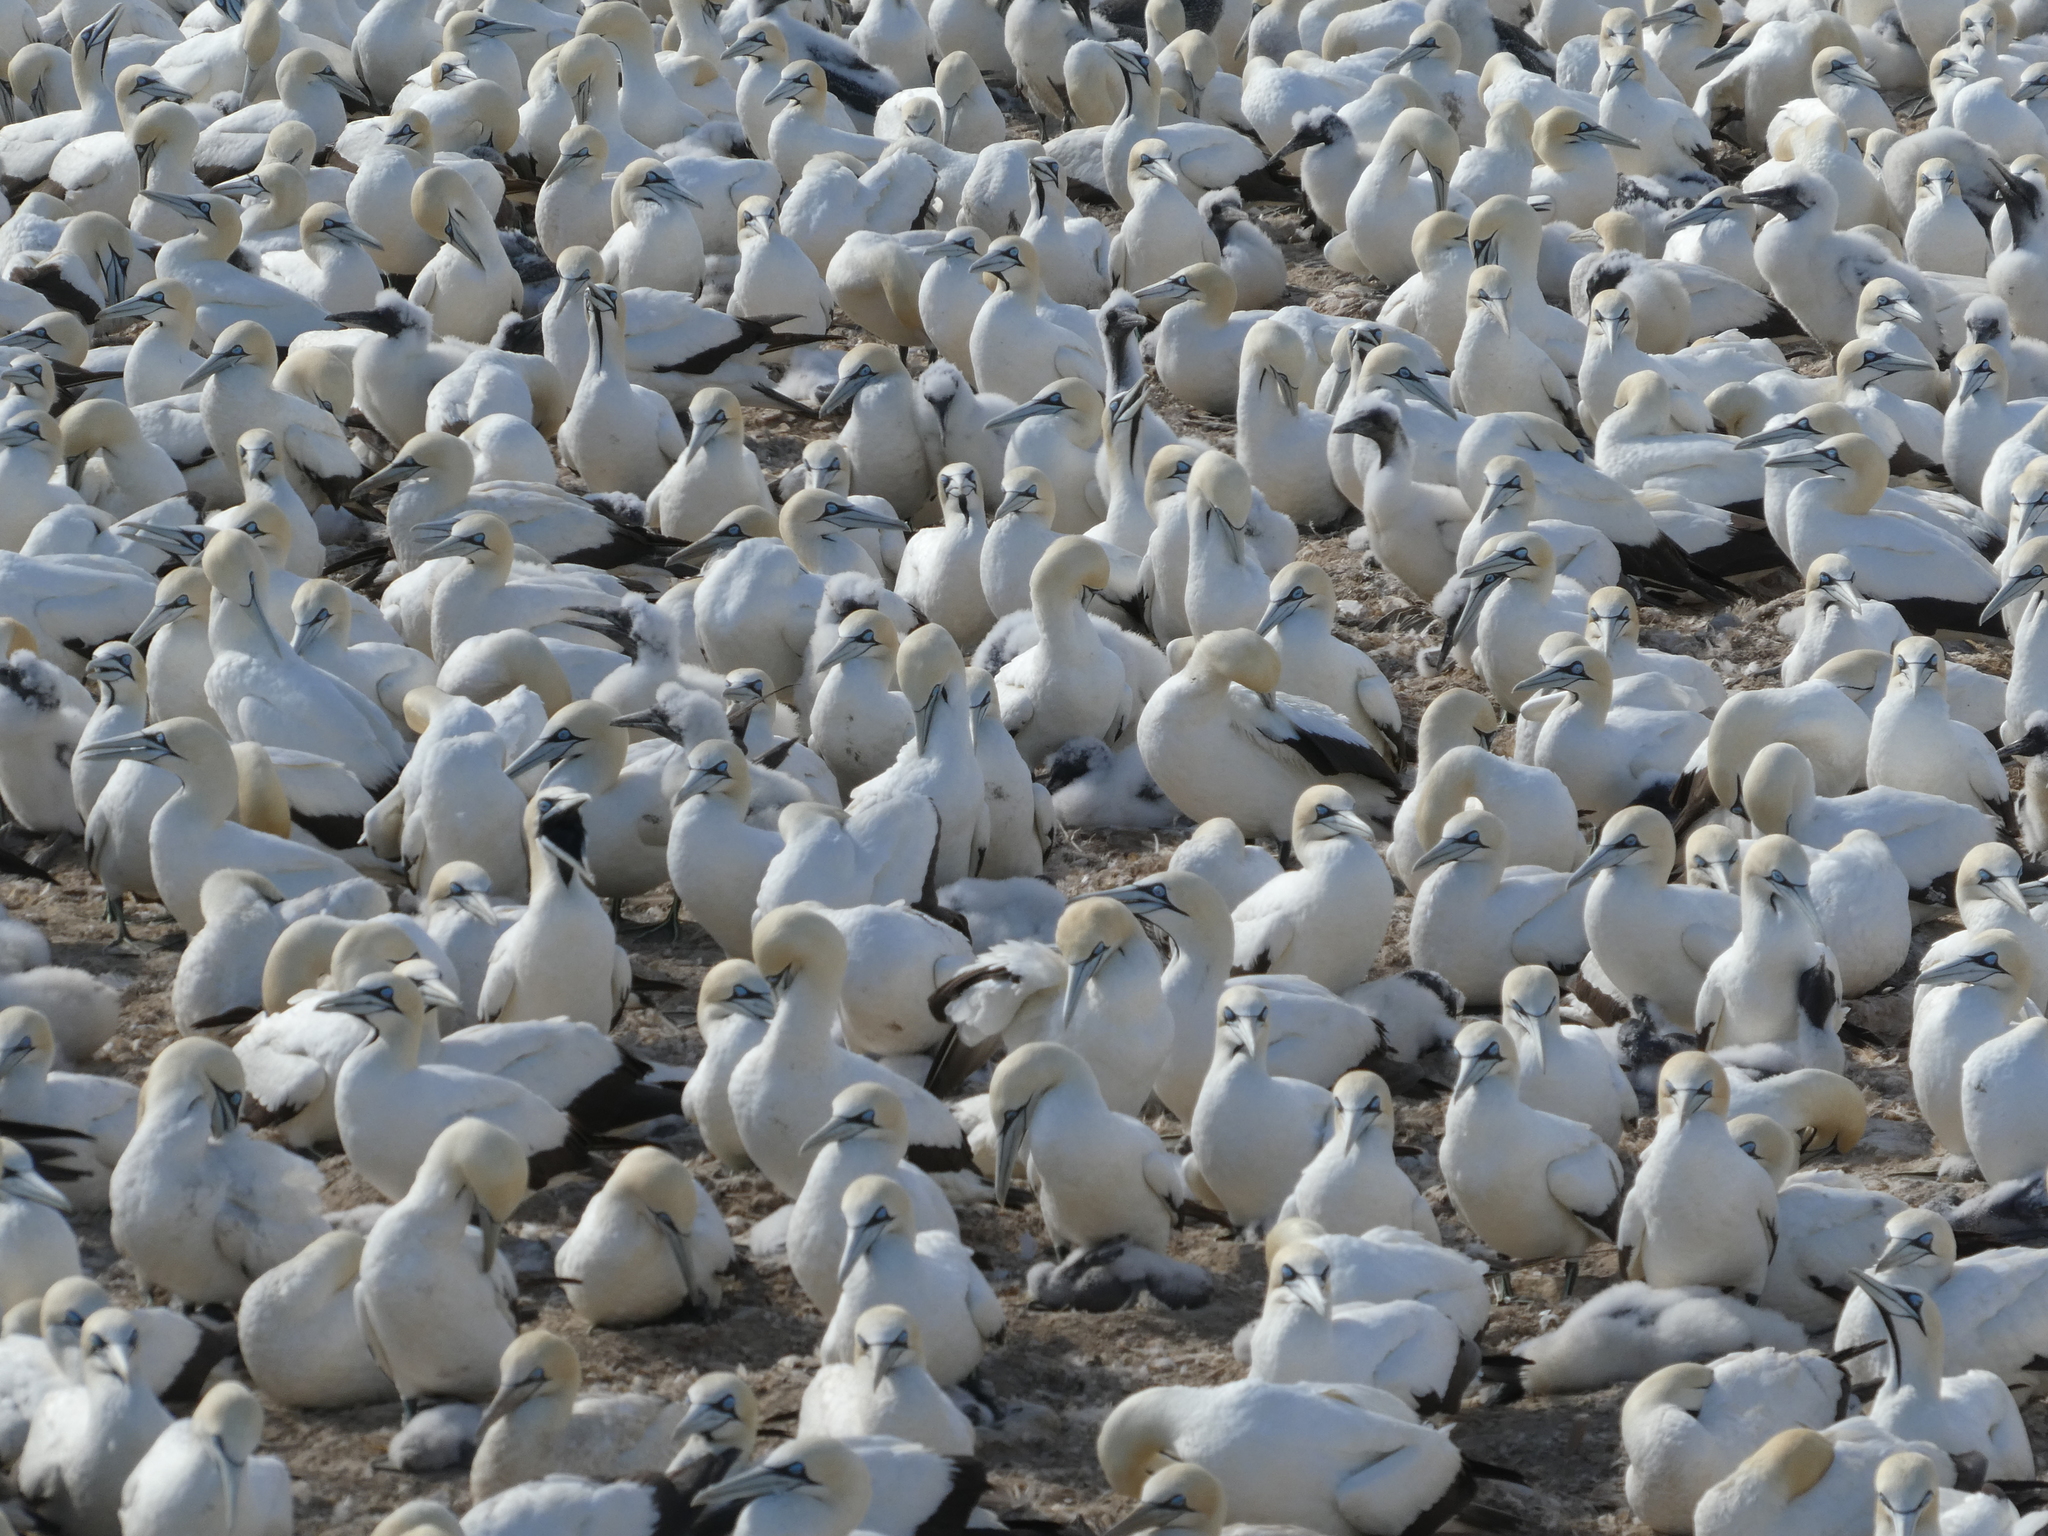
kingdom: Animalia
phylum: Chordata
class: Aves
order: Suliformes
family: Sulidae
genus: Morus
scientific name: Morus capensis
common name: Cape gannet
